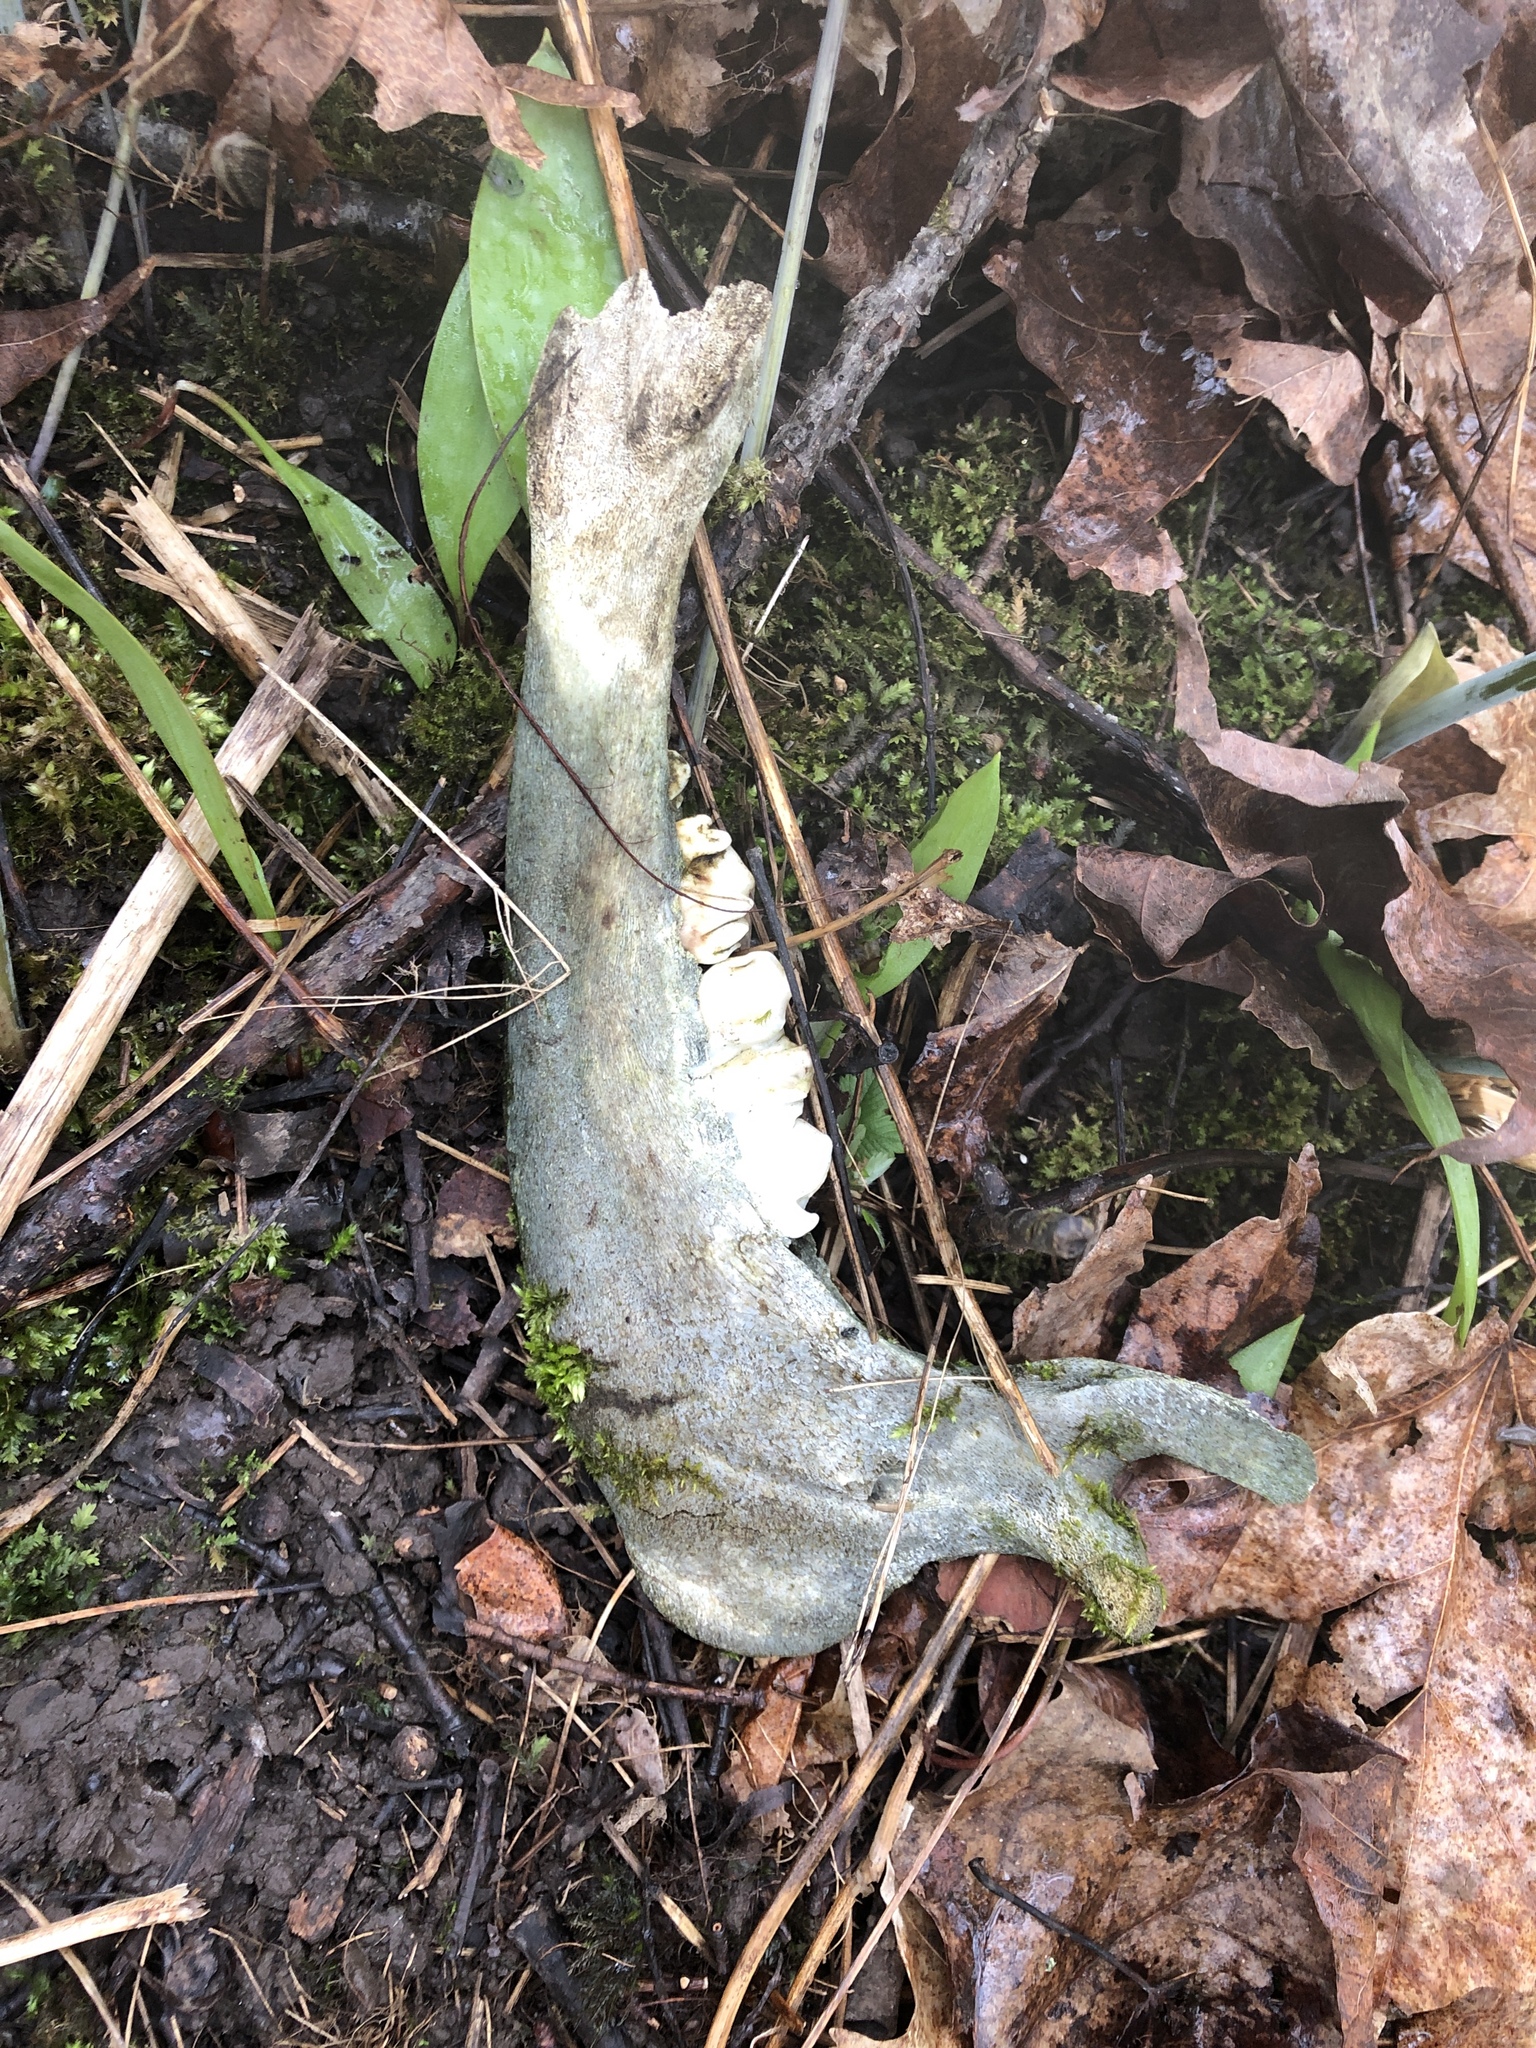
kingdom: Animalia
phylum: Chordata
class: Mammalia
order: Artiodactyla
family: Cervidae
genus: Odocoileus
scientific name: Odocoileus virginianus
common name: White-tailed deer
